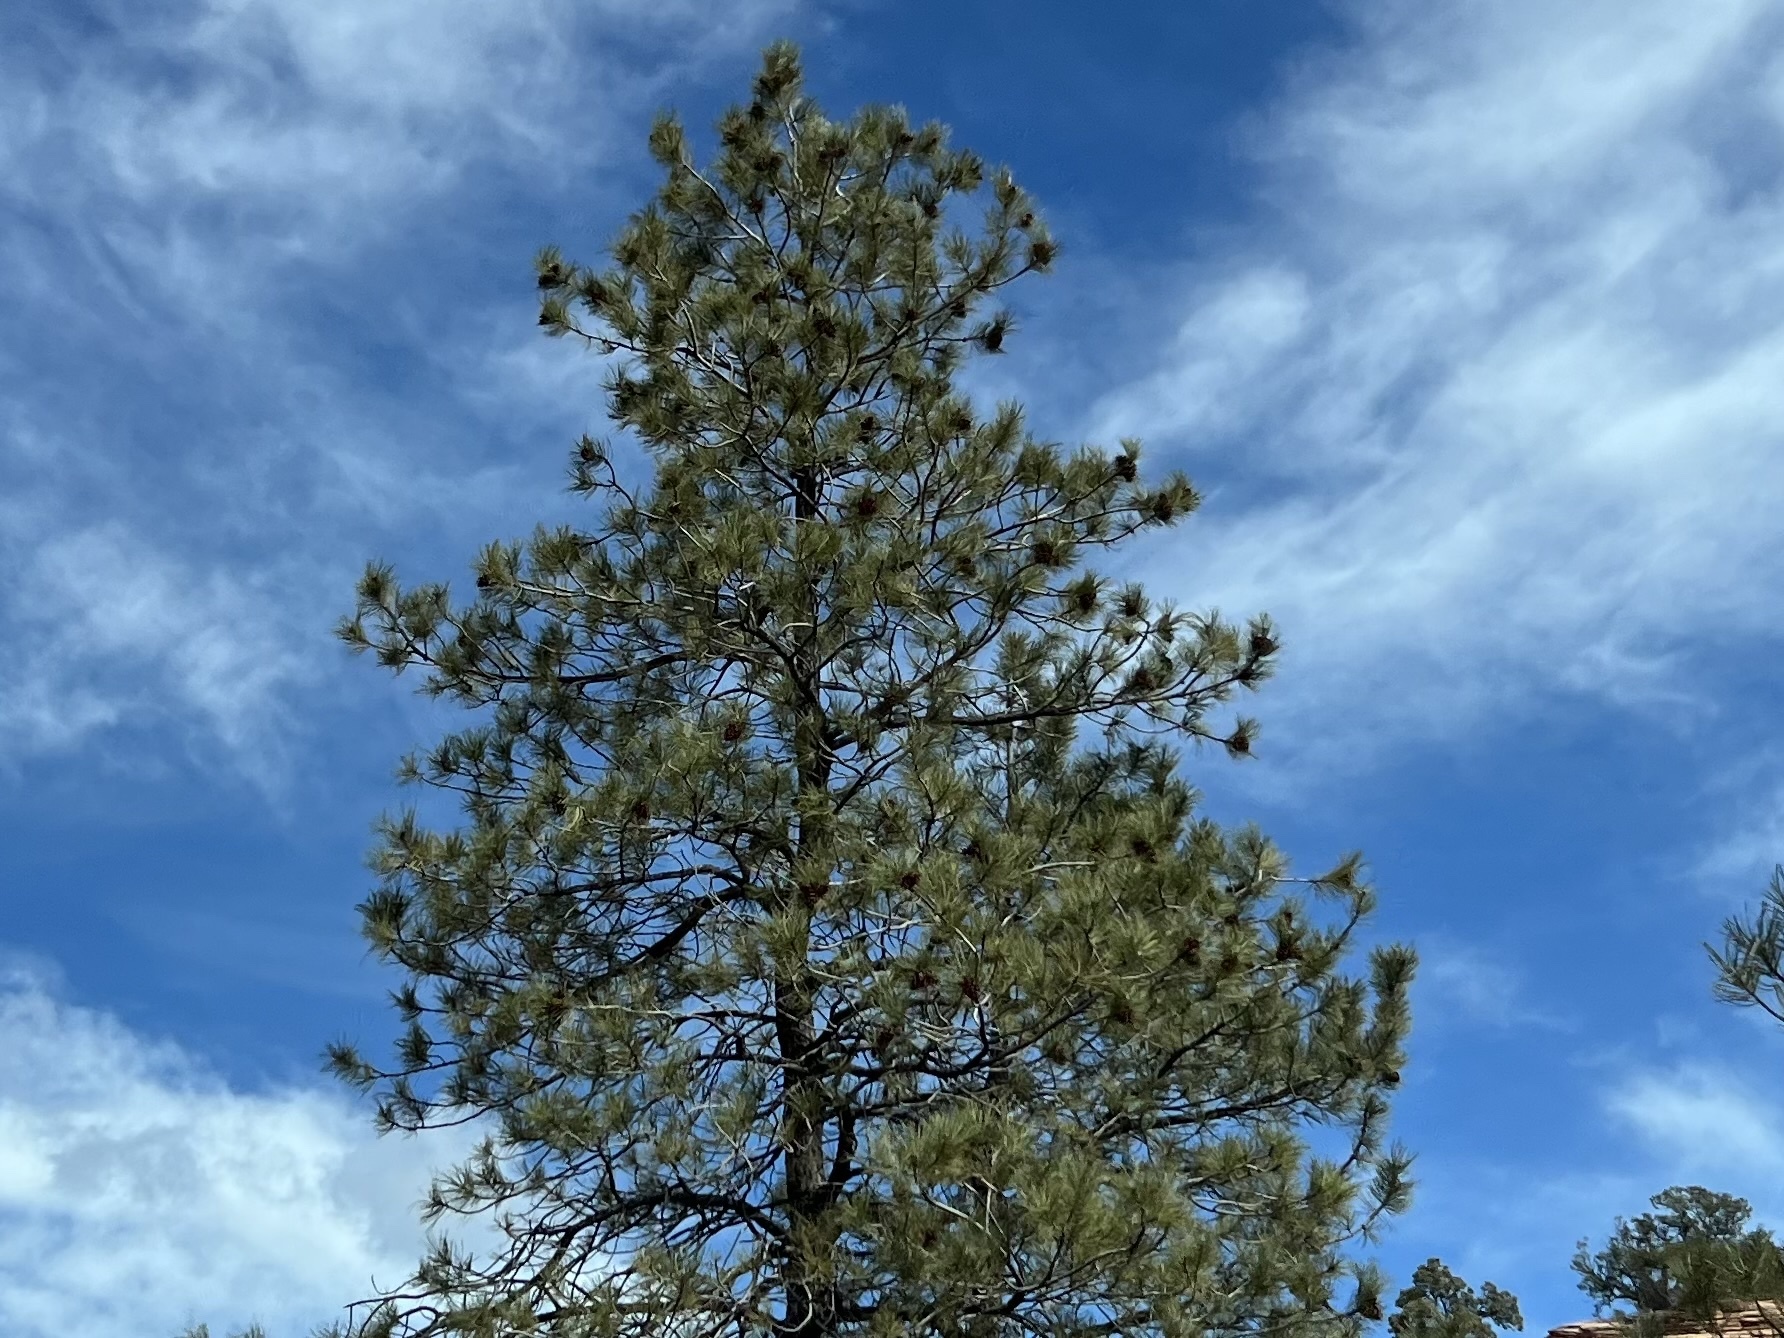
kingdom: Plantae
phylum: Tracheophyta
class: Pinopsida
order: Pinales
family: Pinaceae
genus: Pinus
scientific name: Pinus ponderosa
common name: Western yellow-pine
